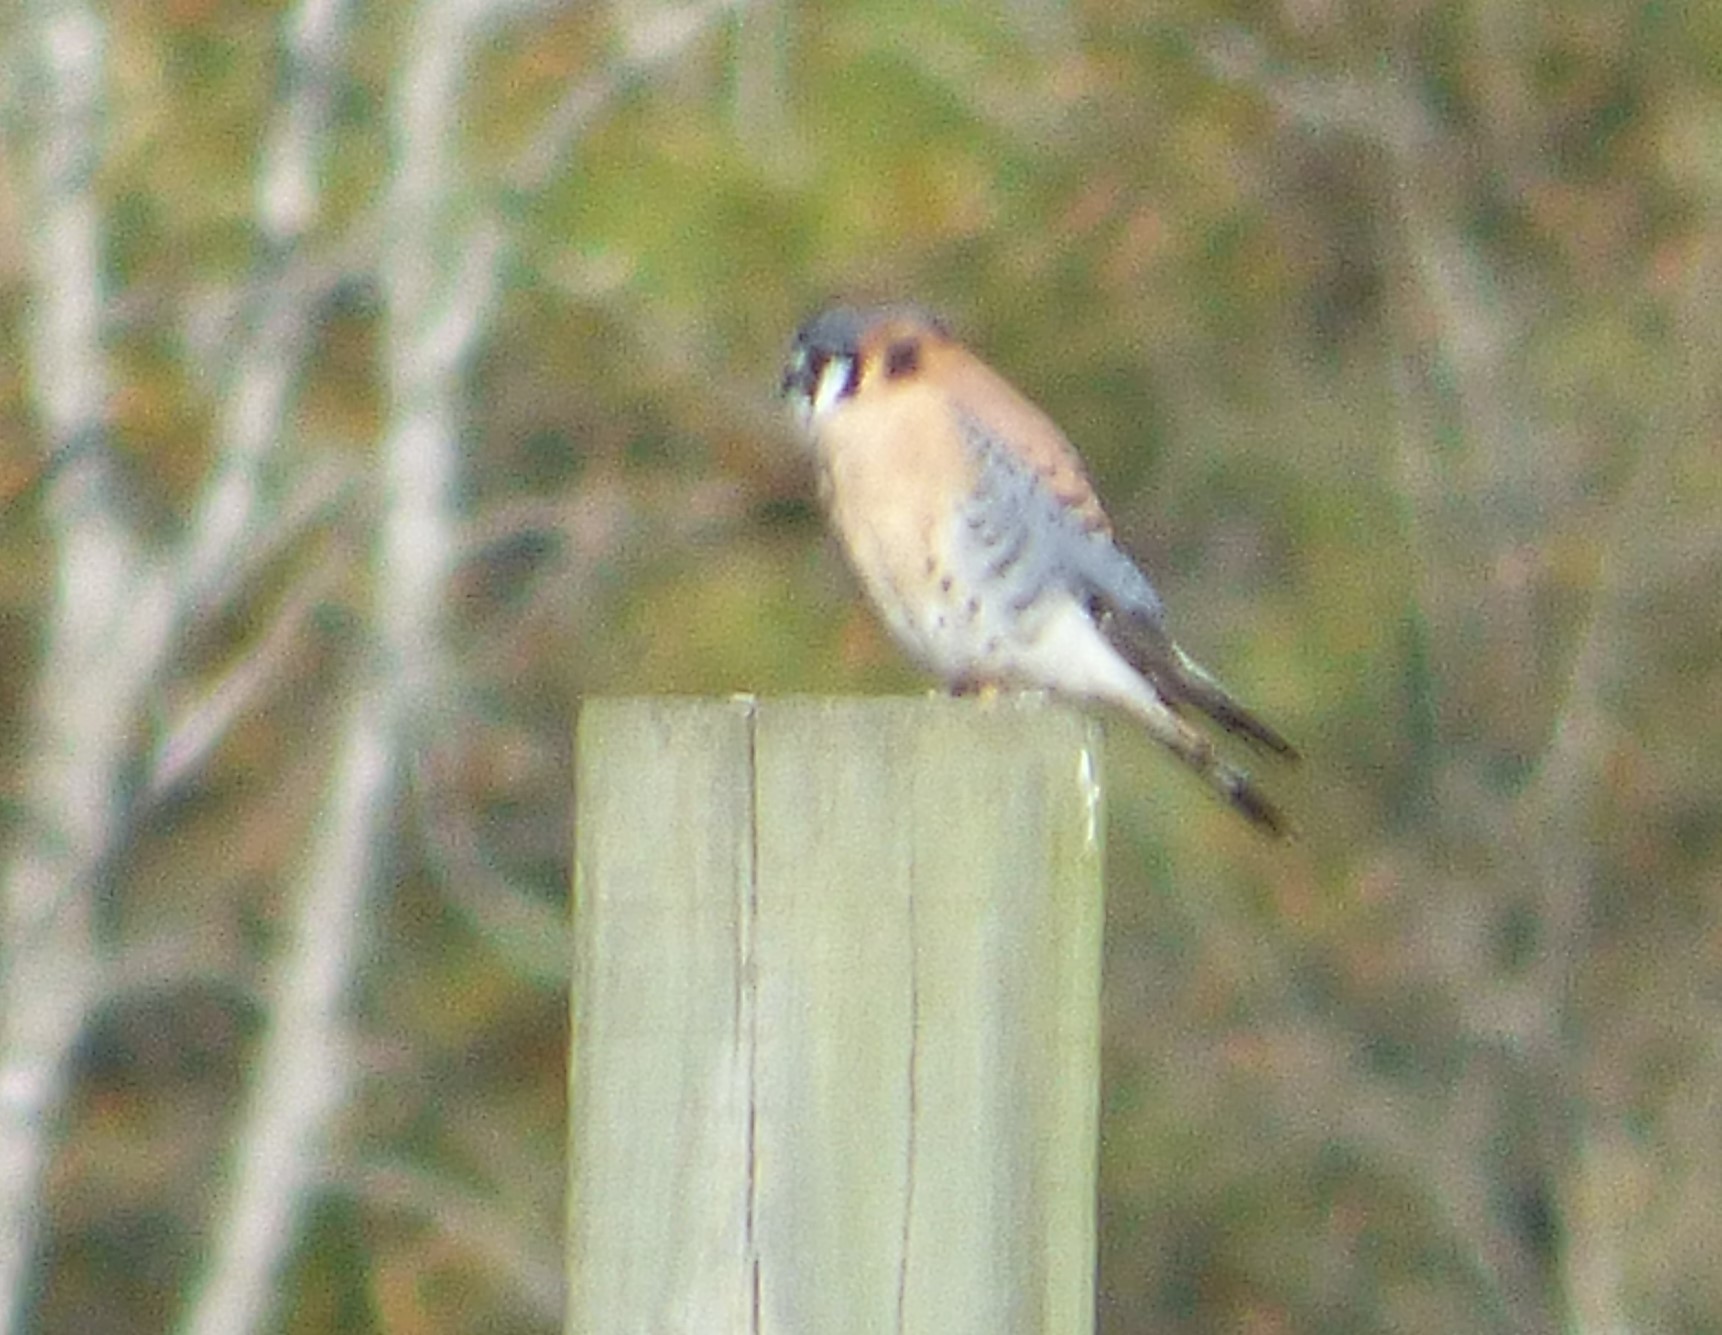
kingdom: Animalia
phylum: Chordata
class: Aves
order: Falconiformes
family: Falconidae
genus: Falco
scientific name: Falco sparverius
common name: American kestrel
